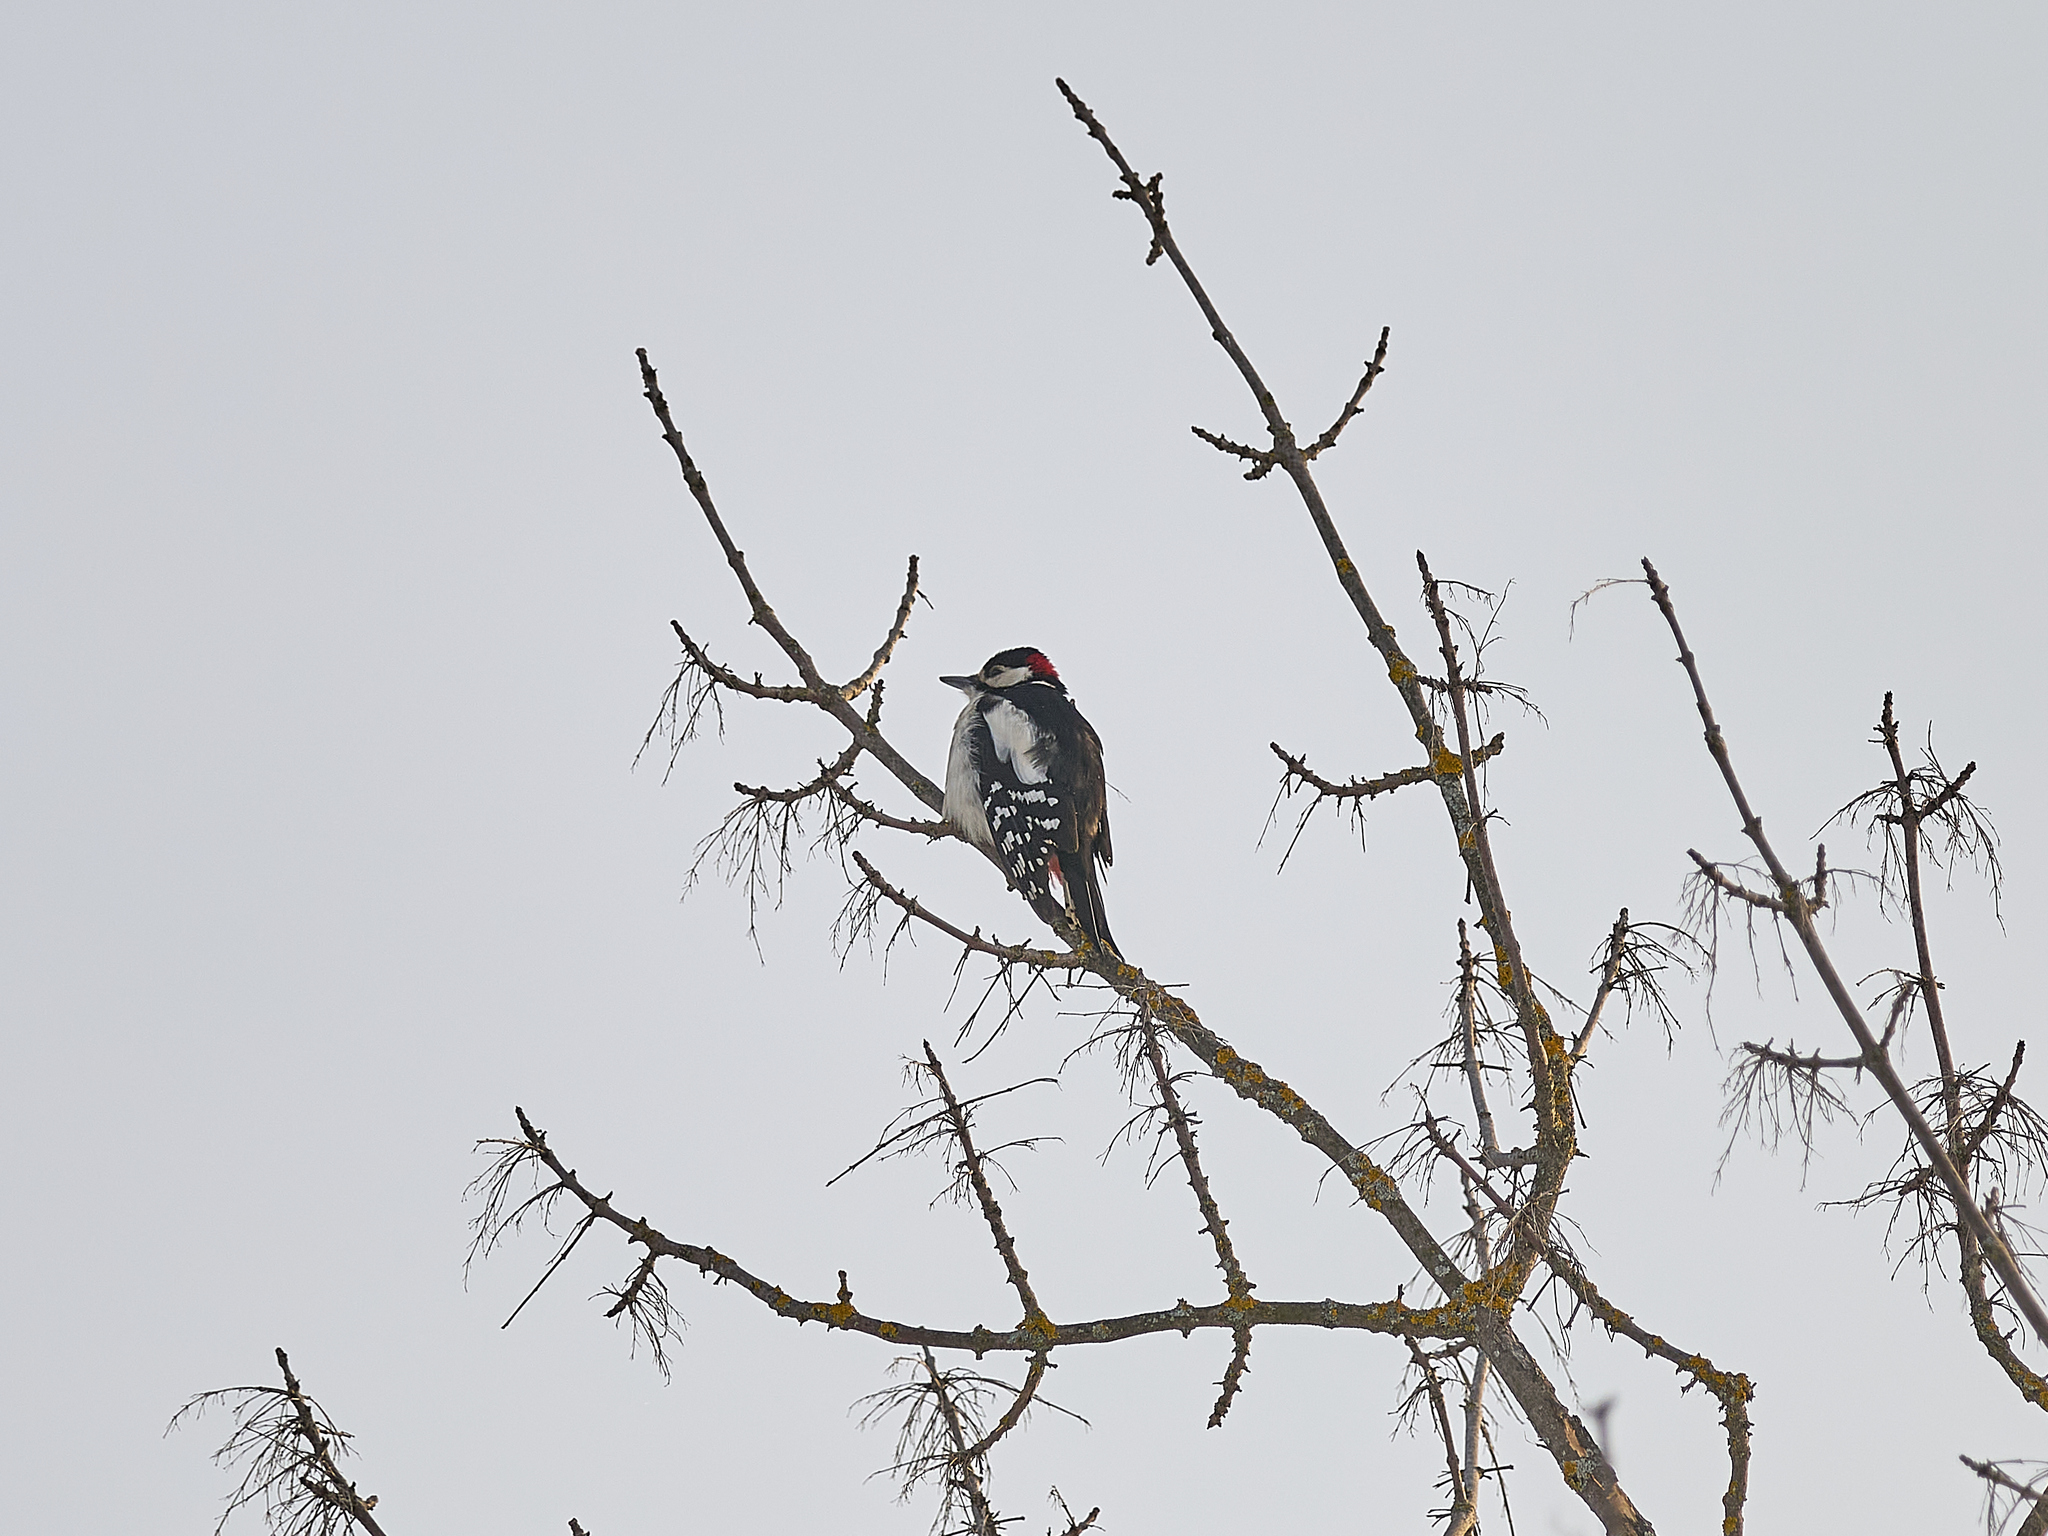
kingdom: Animalia
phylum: Chordata
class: Aves
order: Piciformes
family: Picidae
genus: Dendrocopos
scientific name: Dendrocopos major
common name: Great spotted woodpecker
